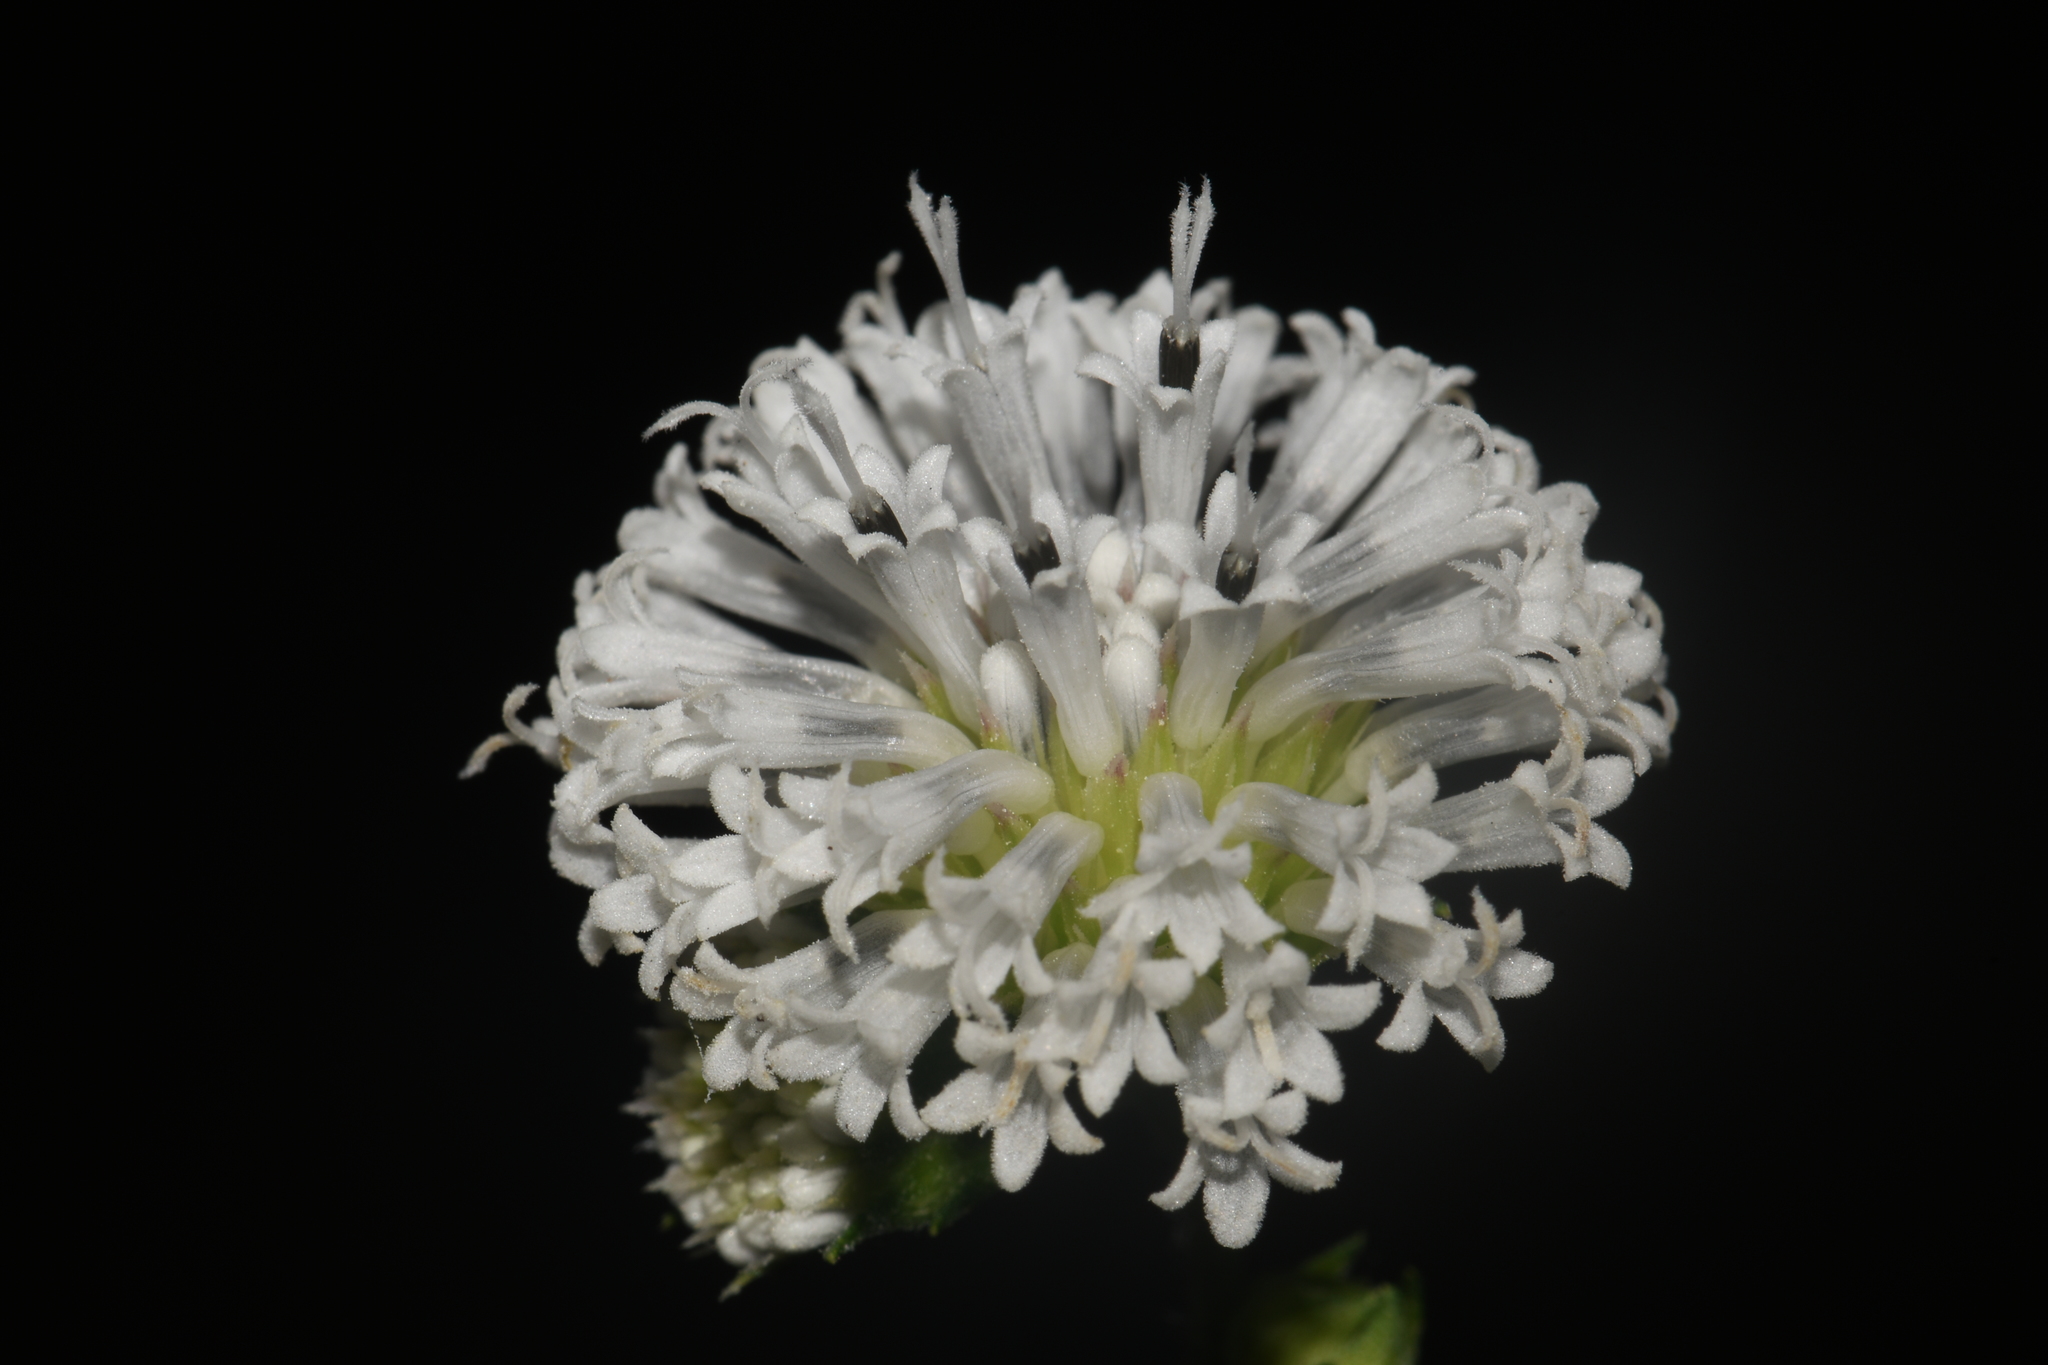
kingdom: Plantae
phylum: Tracheophyta
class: Magnoliopsida
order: Asterales
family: Asteraceae
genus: Melanthera
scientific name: Melanthera nivea
